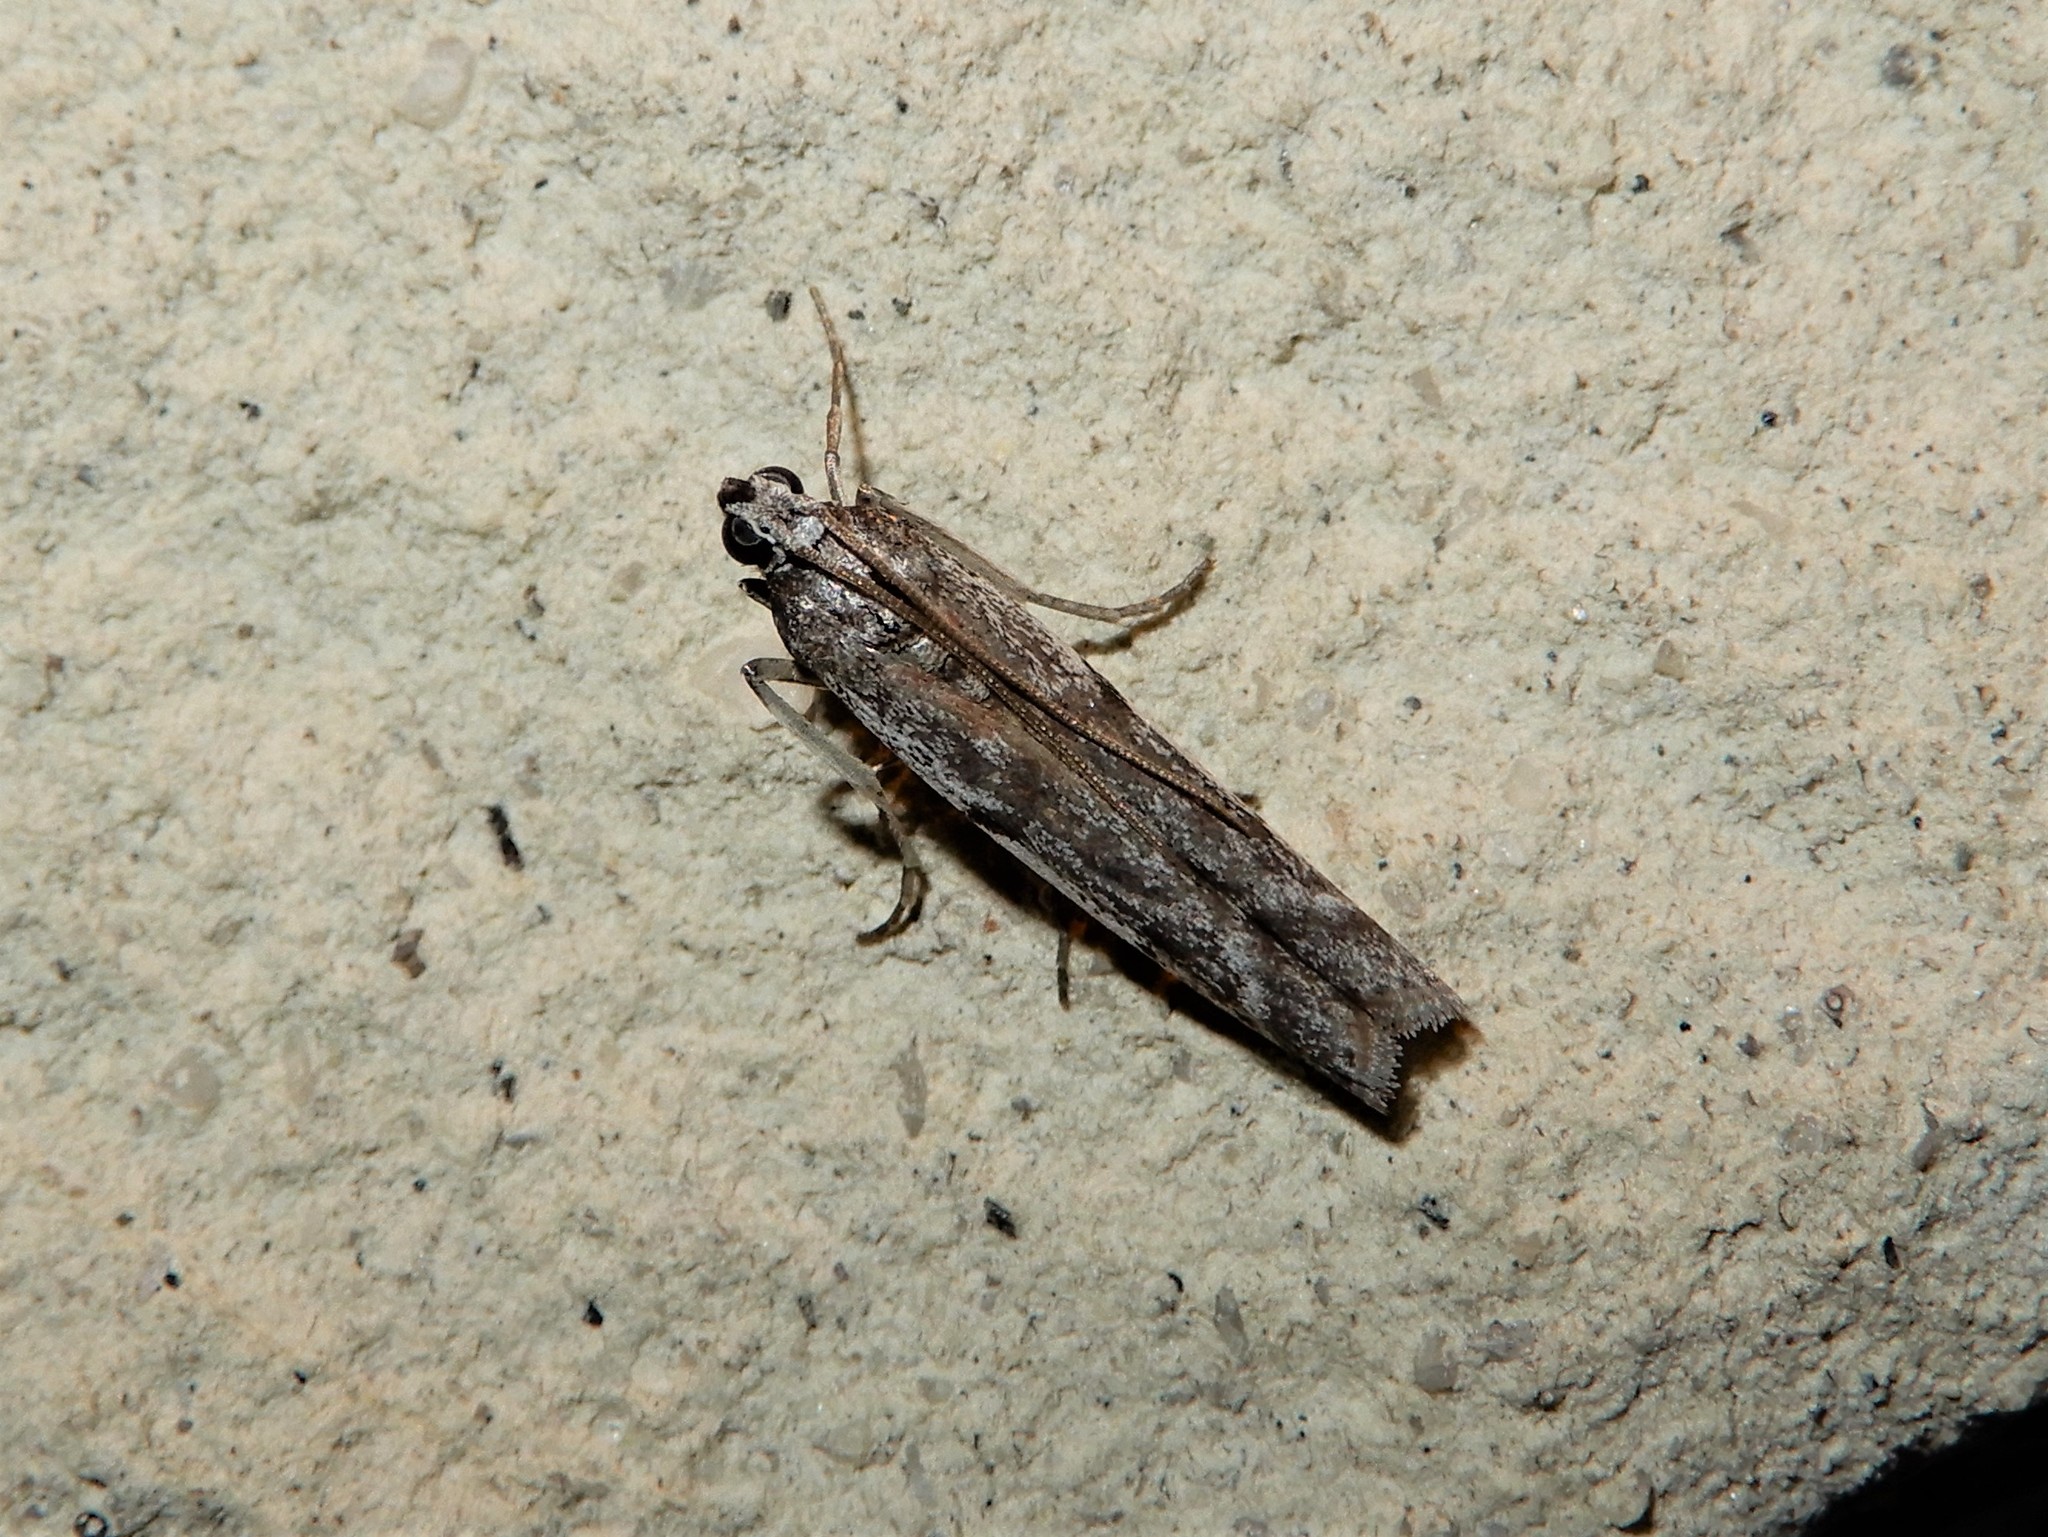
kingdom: Animalia
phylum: Arthropoda
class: Insecta
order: Lepidoptera
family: Pyralidae
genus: Patagoniodes
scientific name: Patagoniodes farinaria
